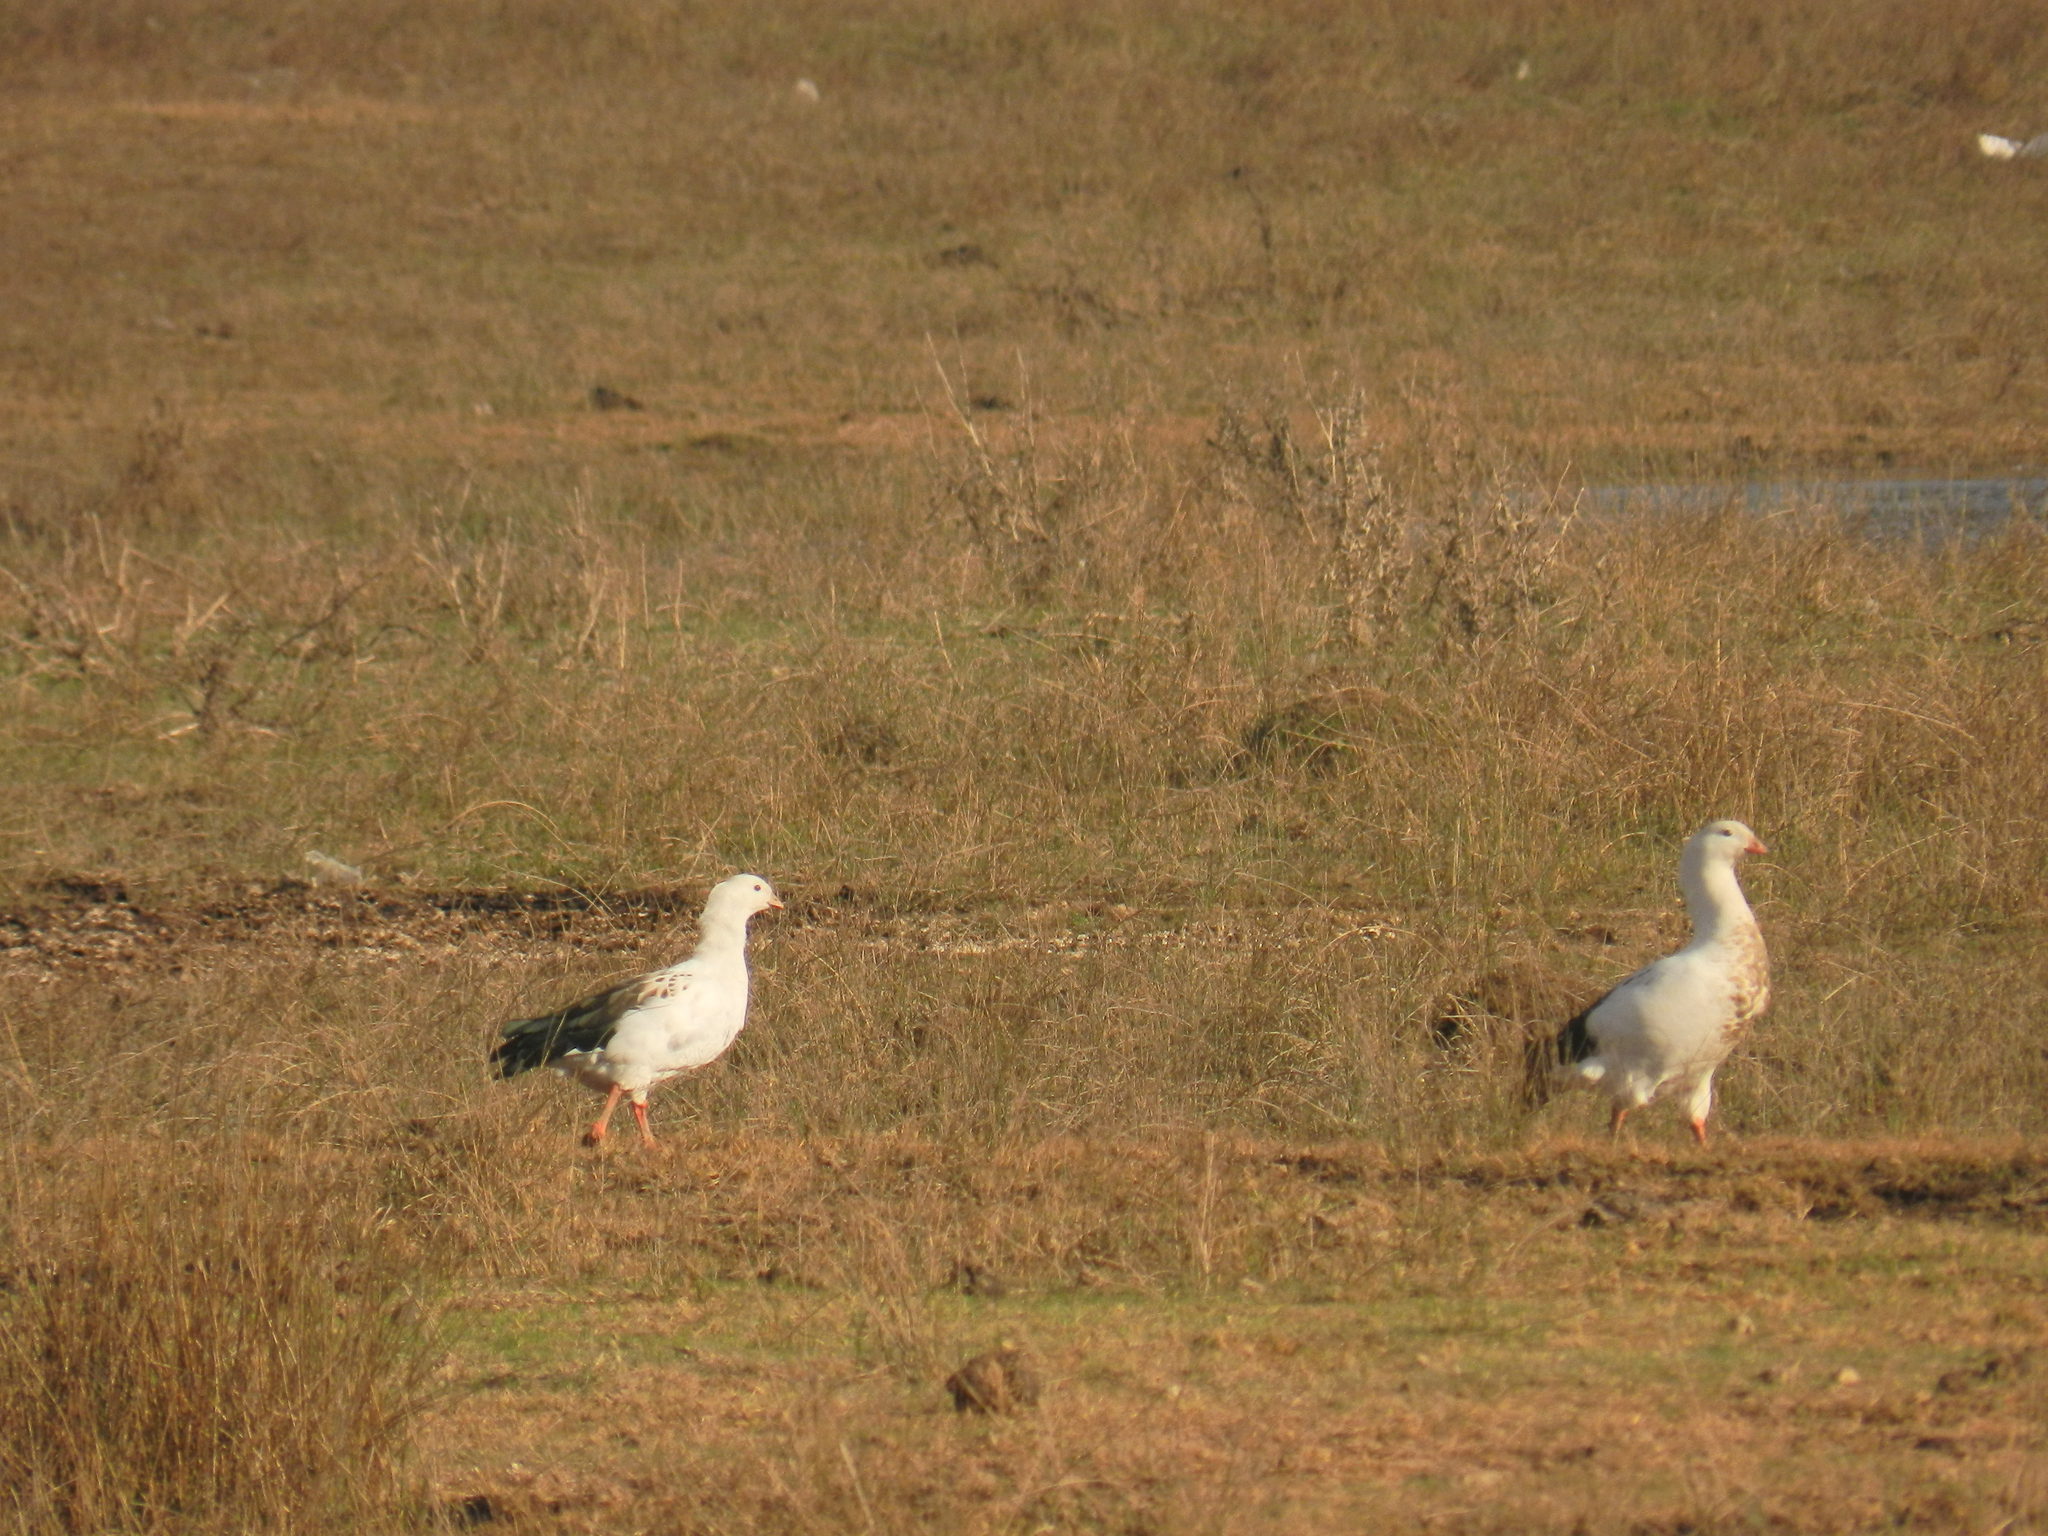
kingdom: Animalia
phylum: Chordata
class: Aves
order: Anseriformes
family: Anatidae
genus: Chloephaga
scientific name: Chloephaga melanoptera
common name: Andean goose
